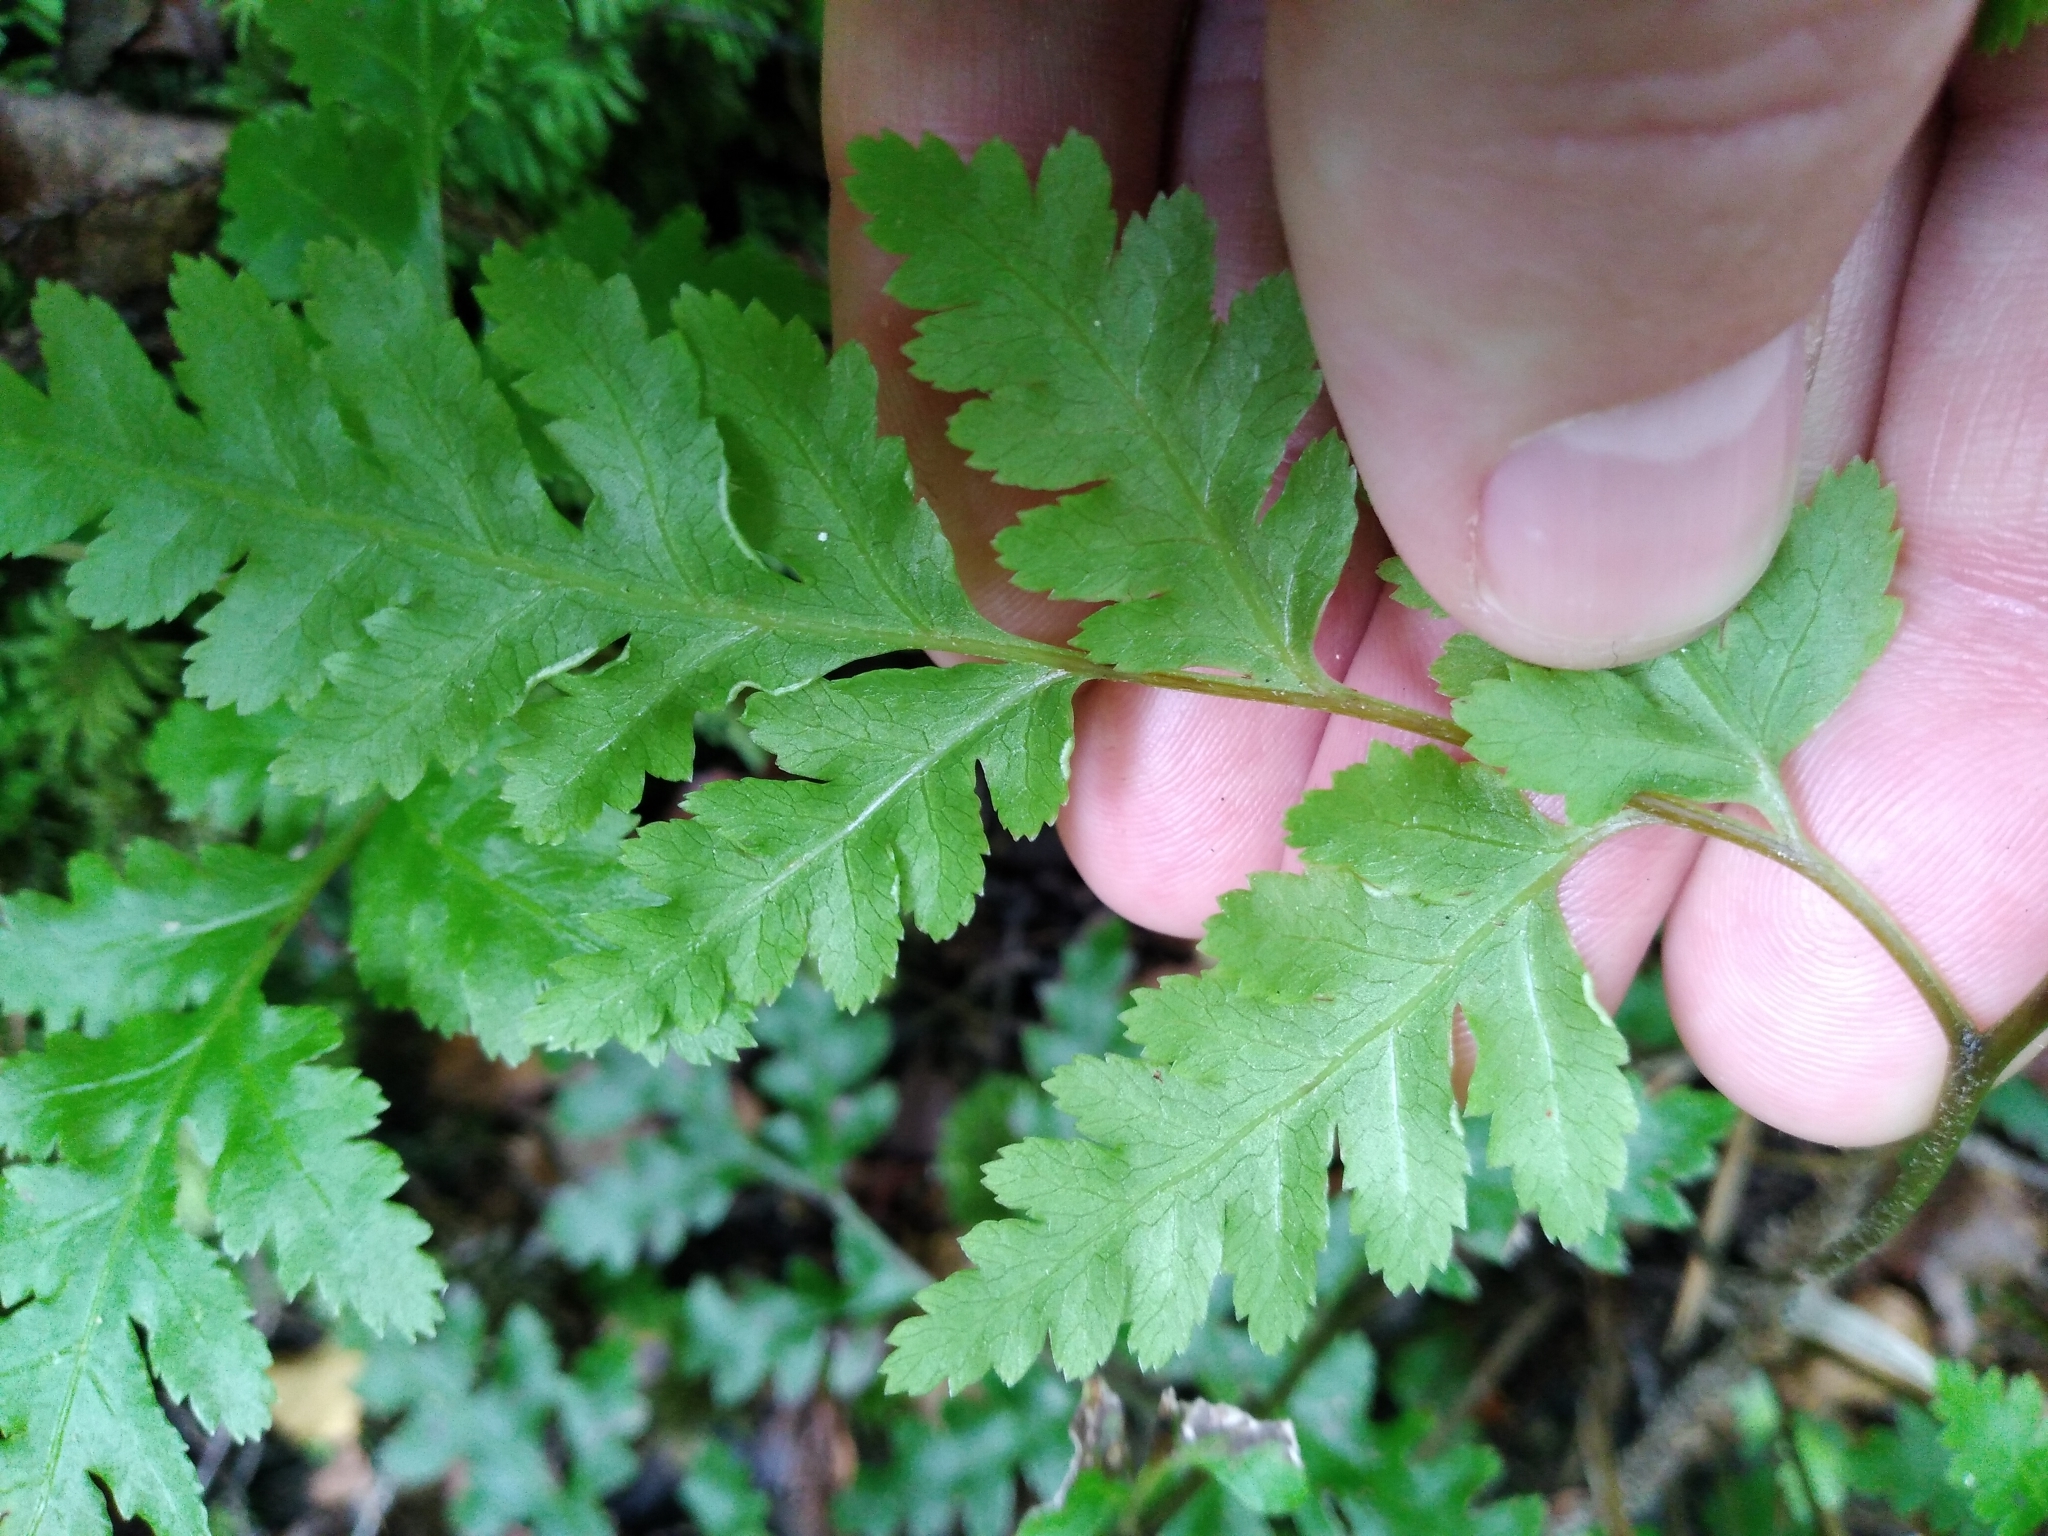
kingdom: Plantae
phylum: Tracheophyta
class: Polypodiopsida
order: Polypodiales
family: Pteridaceae
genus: Pteris
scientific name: Pteris macilenta
